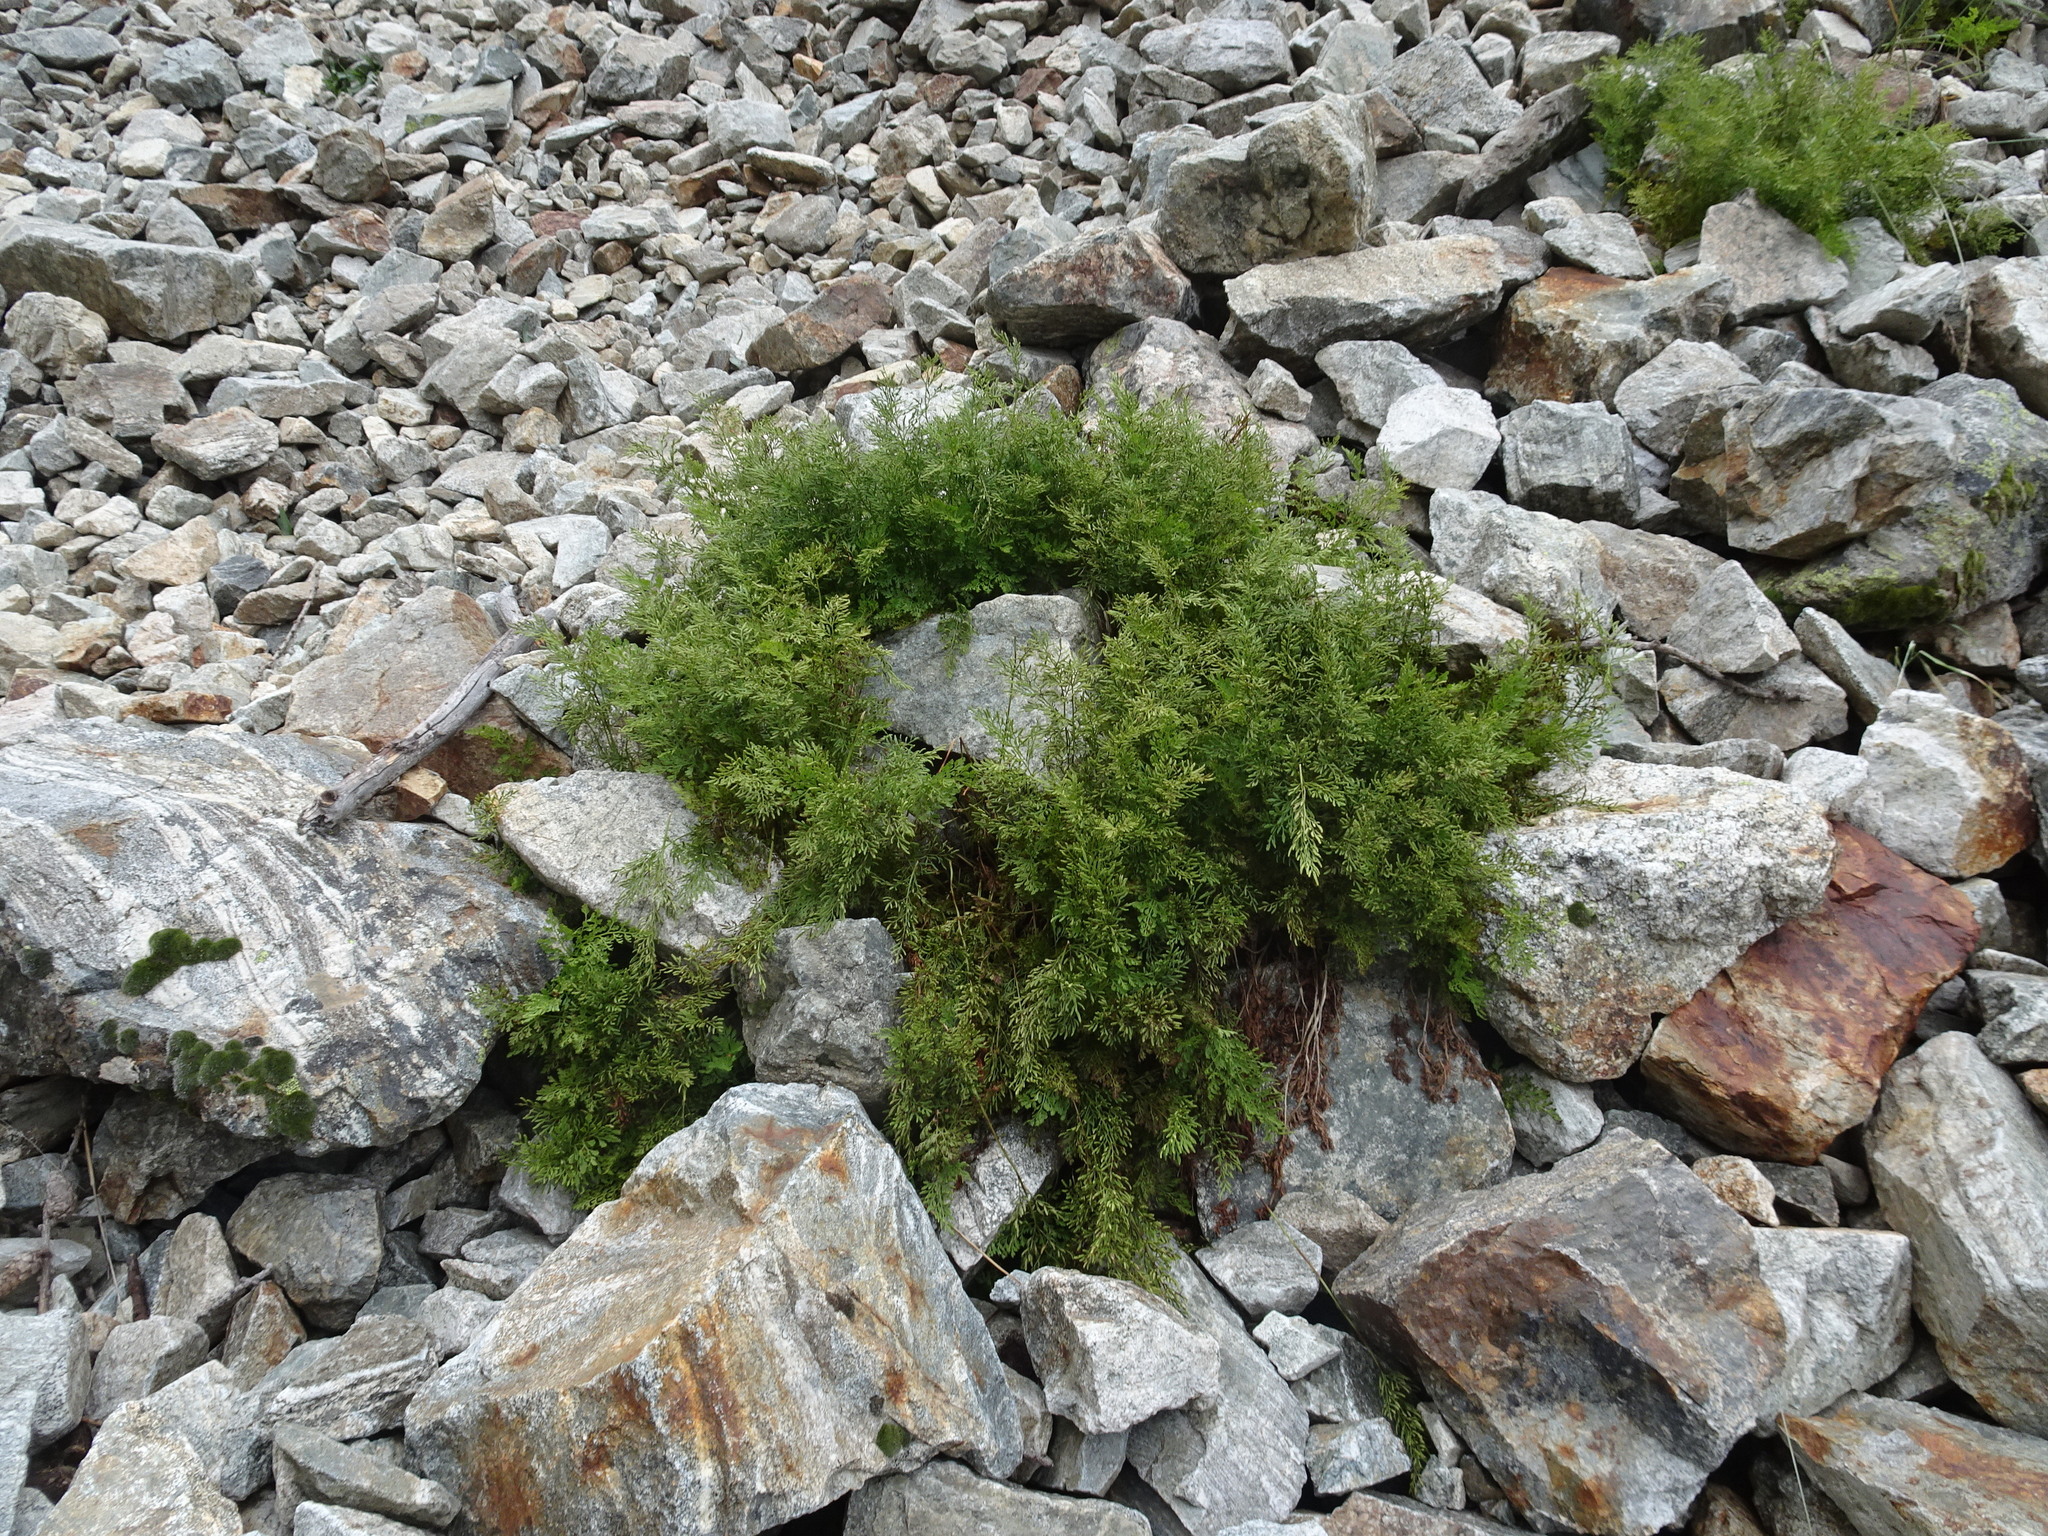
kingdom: Plantae
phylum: Tracheophyta
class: Polypodiopsida
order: Polypodiales
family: Pteridaceae
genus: Cryptogramma
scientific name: Cryptogramma crispa
